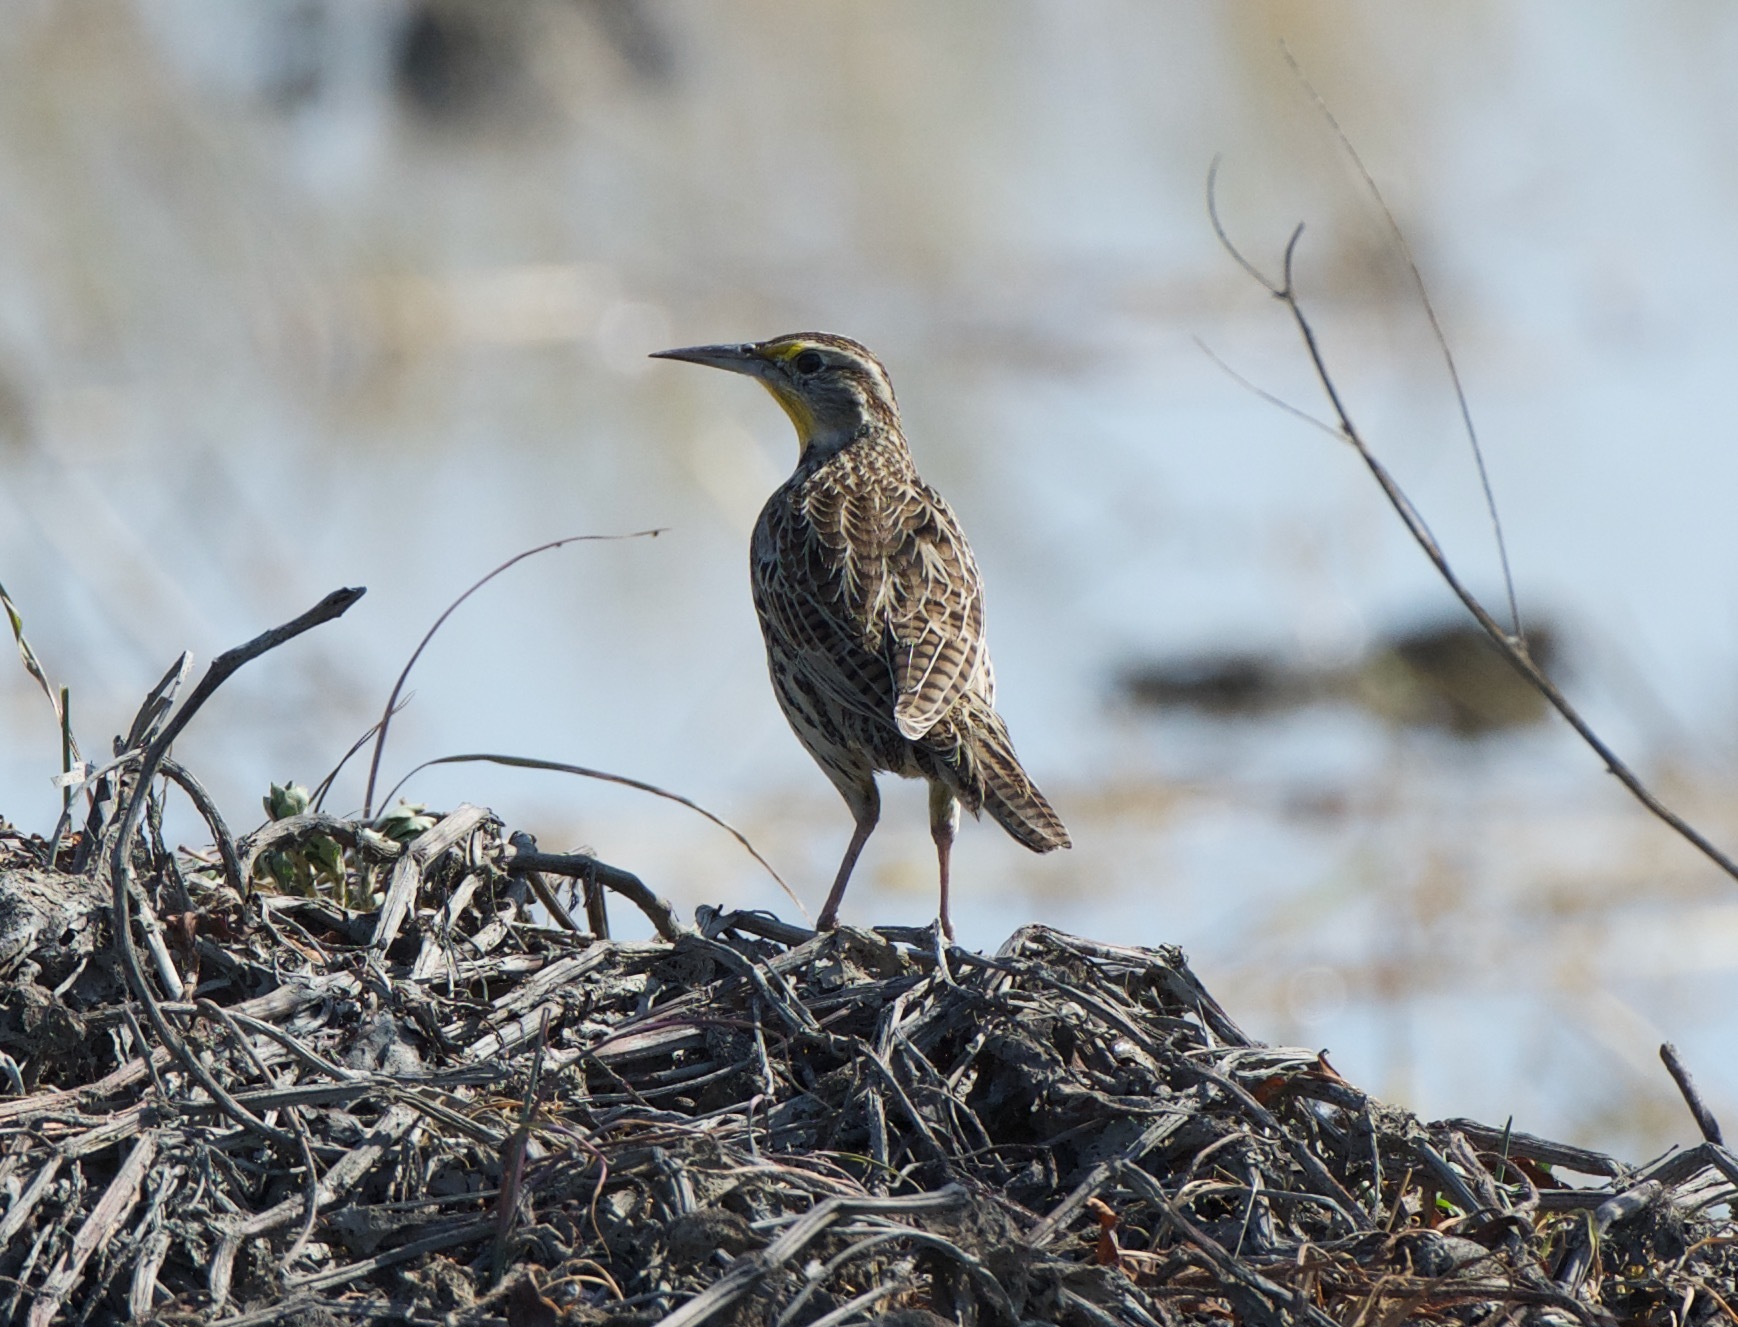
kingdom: Animalia
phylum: Chordata
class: Aves
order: Passeriformes
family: Icteridae
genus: Sturnella
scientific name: Sturnella neglecta
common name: Western meadowlark
